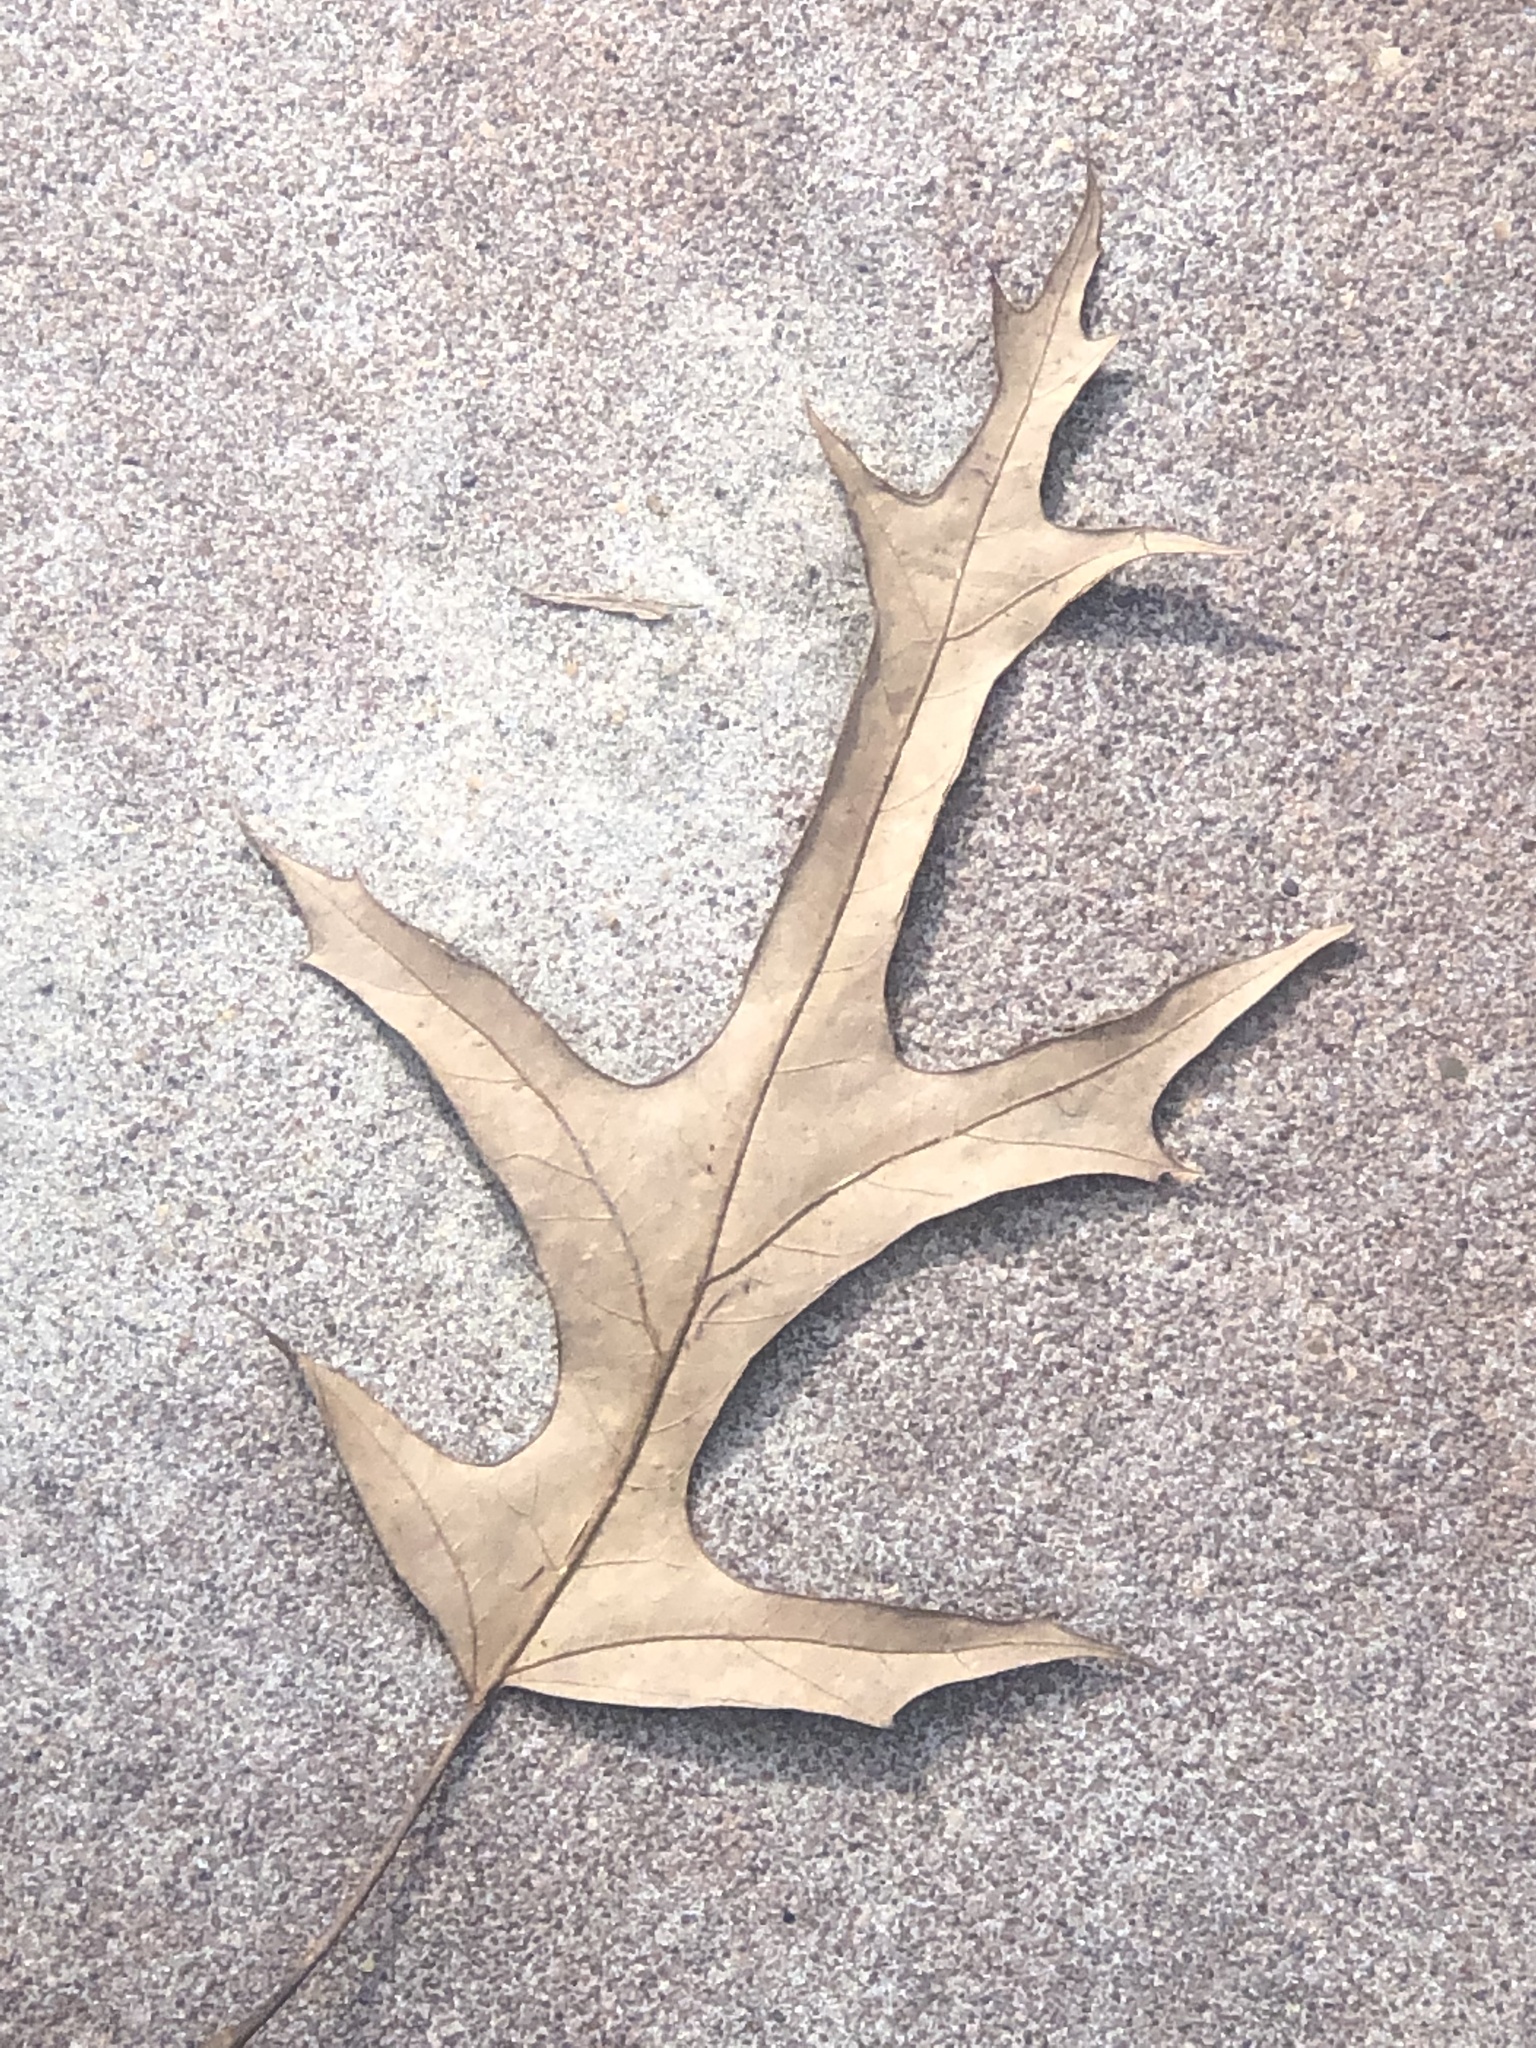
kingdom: Plantae
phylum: Tracheophyta
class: Magnoliopsida
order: Fagales
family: Fagaceae
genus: Quercus
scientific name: Quercus falcata
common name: Southern red oak
